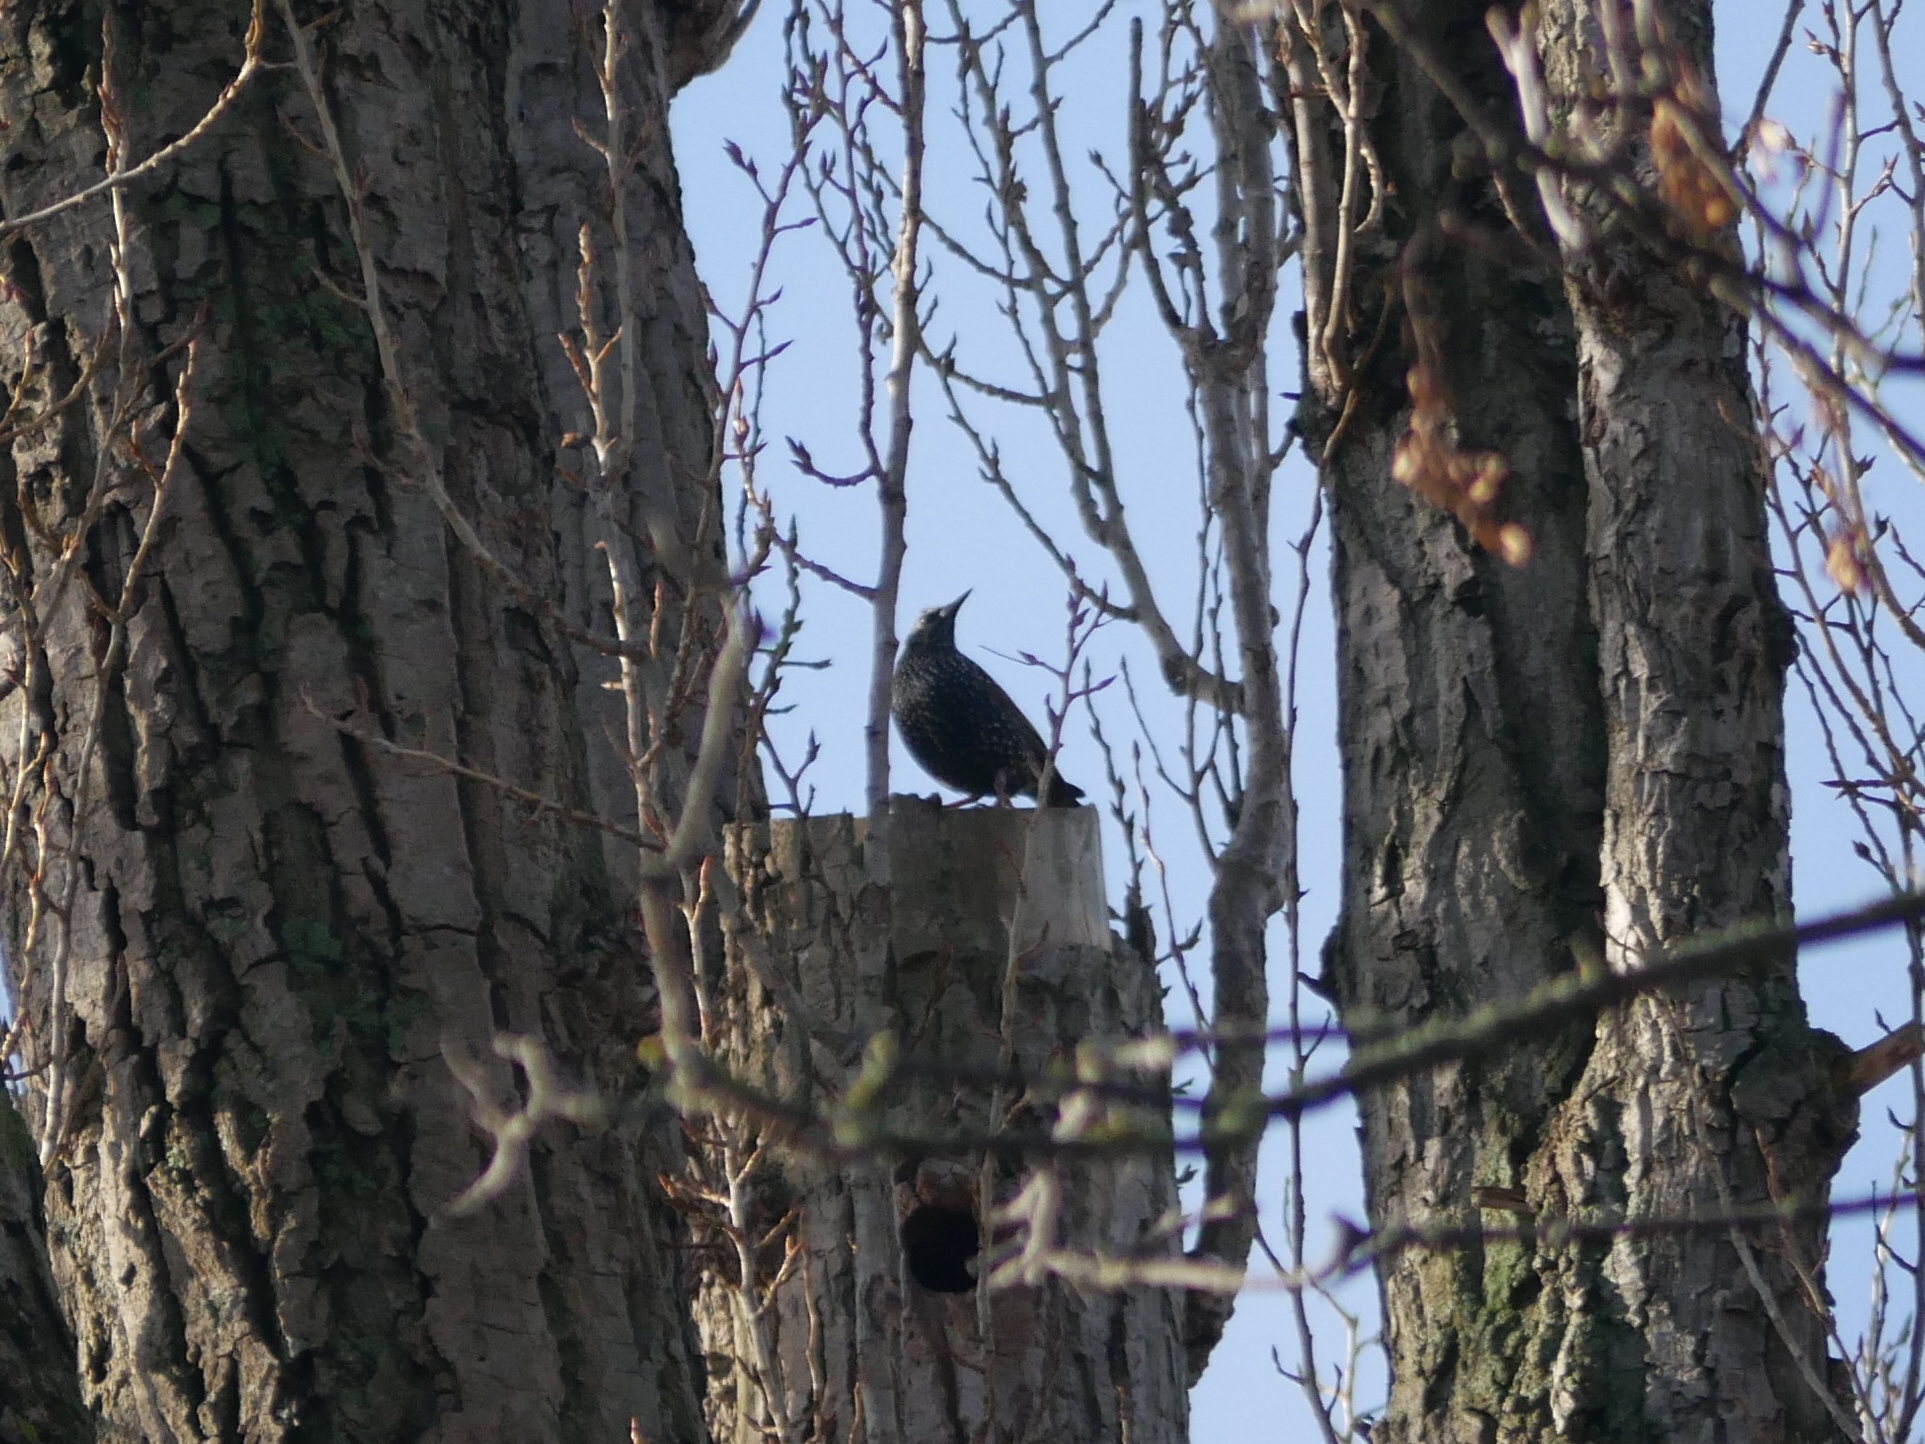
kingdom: Animalia
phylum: Chordata
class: Aves
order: Passeriformes
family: Sturnidae
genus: Sturnus
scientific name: Sturnus vulgaris
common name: Common starling
